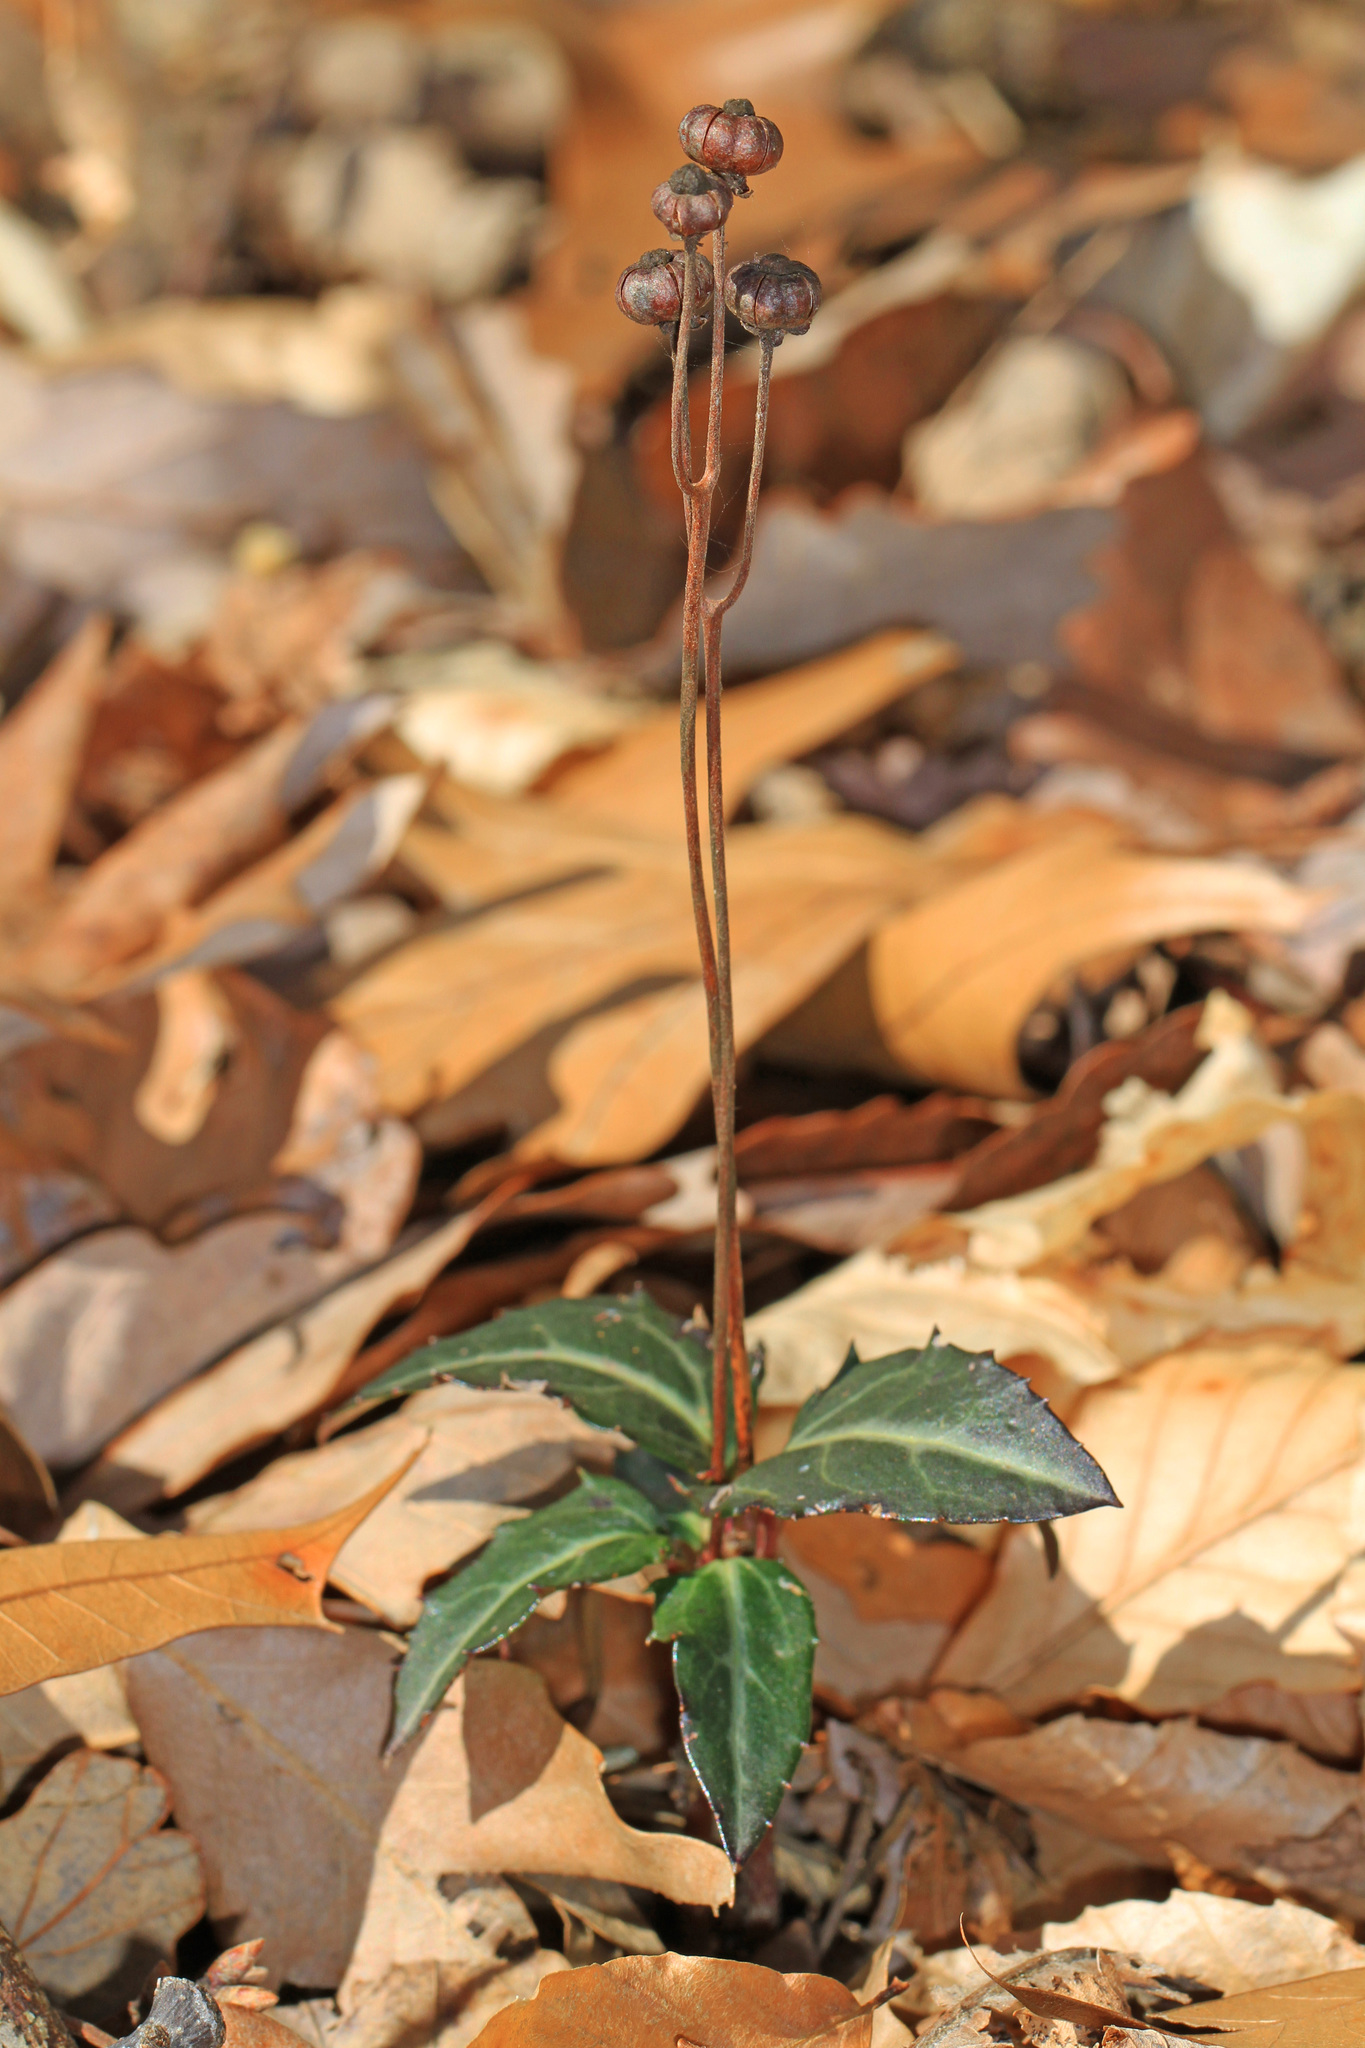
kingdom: Plantae
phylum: Tracheophyta
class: Magnoliopsida
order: Ericales
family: Ericaceae
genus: Chimaphila
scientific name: Chimaphila maculata
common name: Spotted pipsissewa
